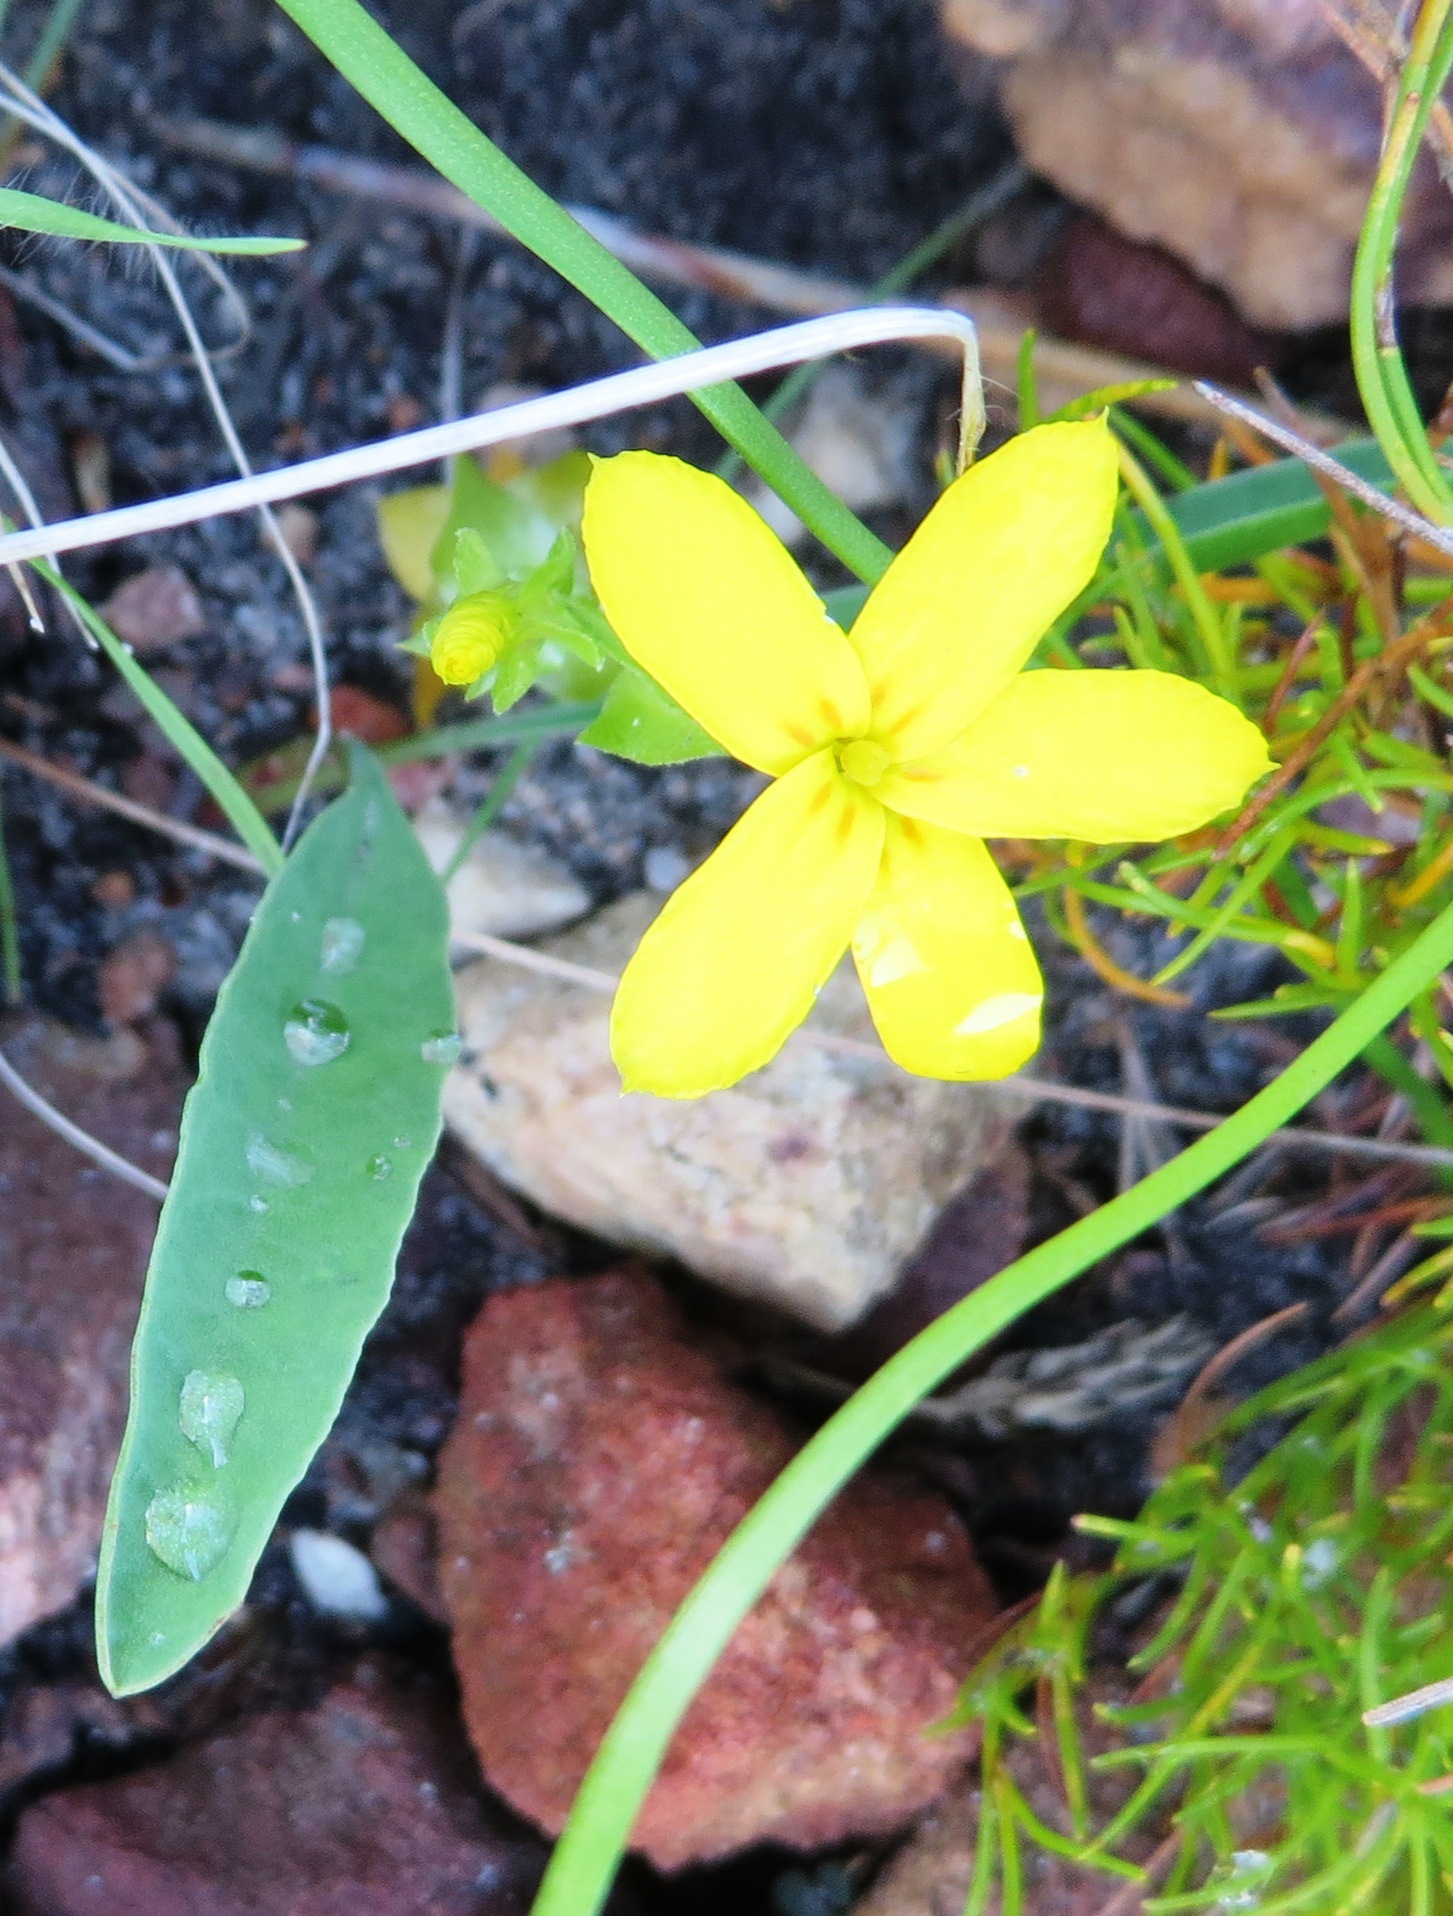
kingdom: Plantae
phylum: Tracheophyta
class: Magnoliopsida
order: Gentianales
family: Gentianaceae
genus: Sebaea
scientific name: Sebaea exacoides
